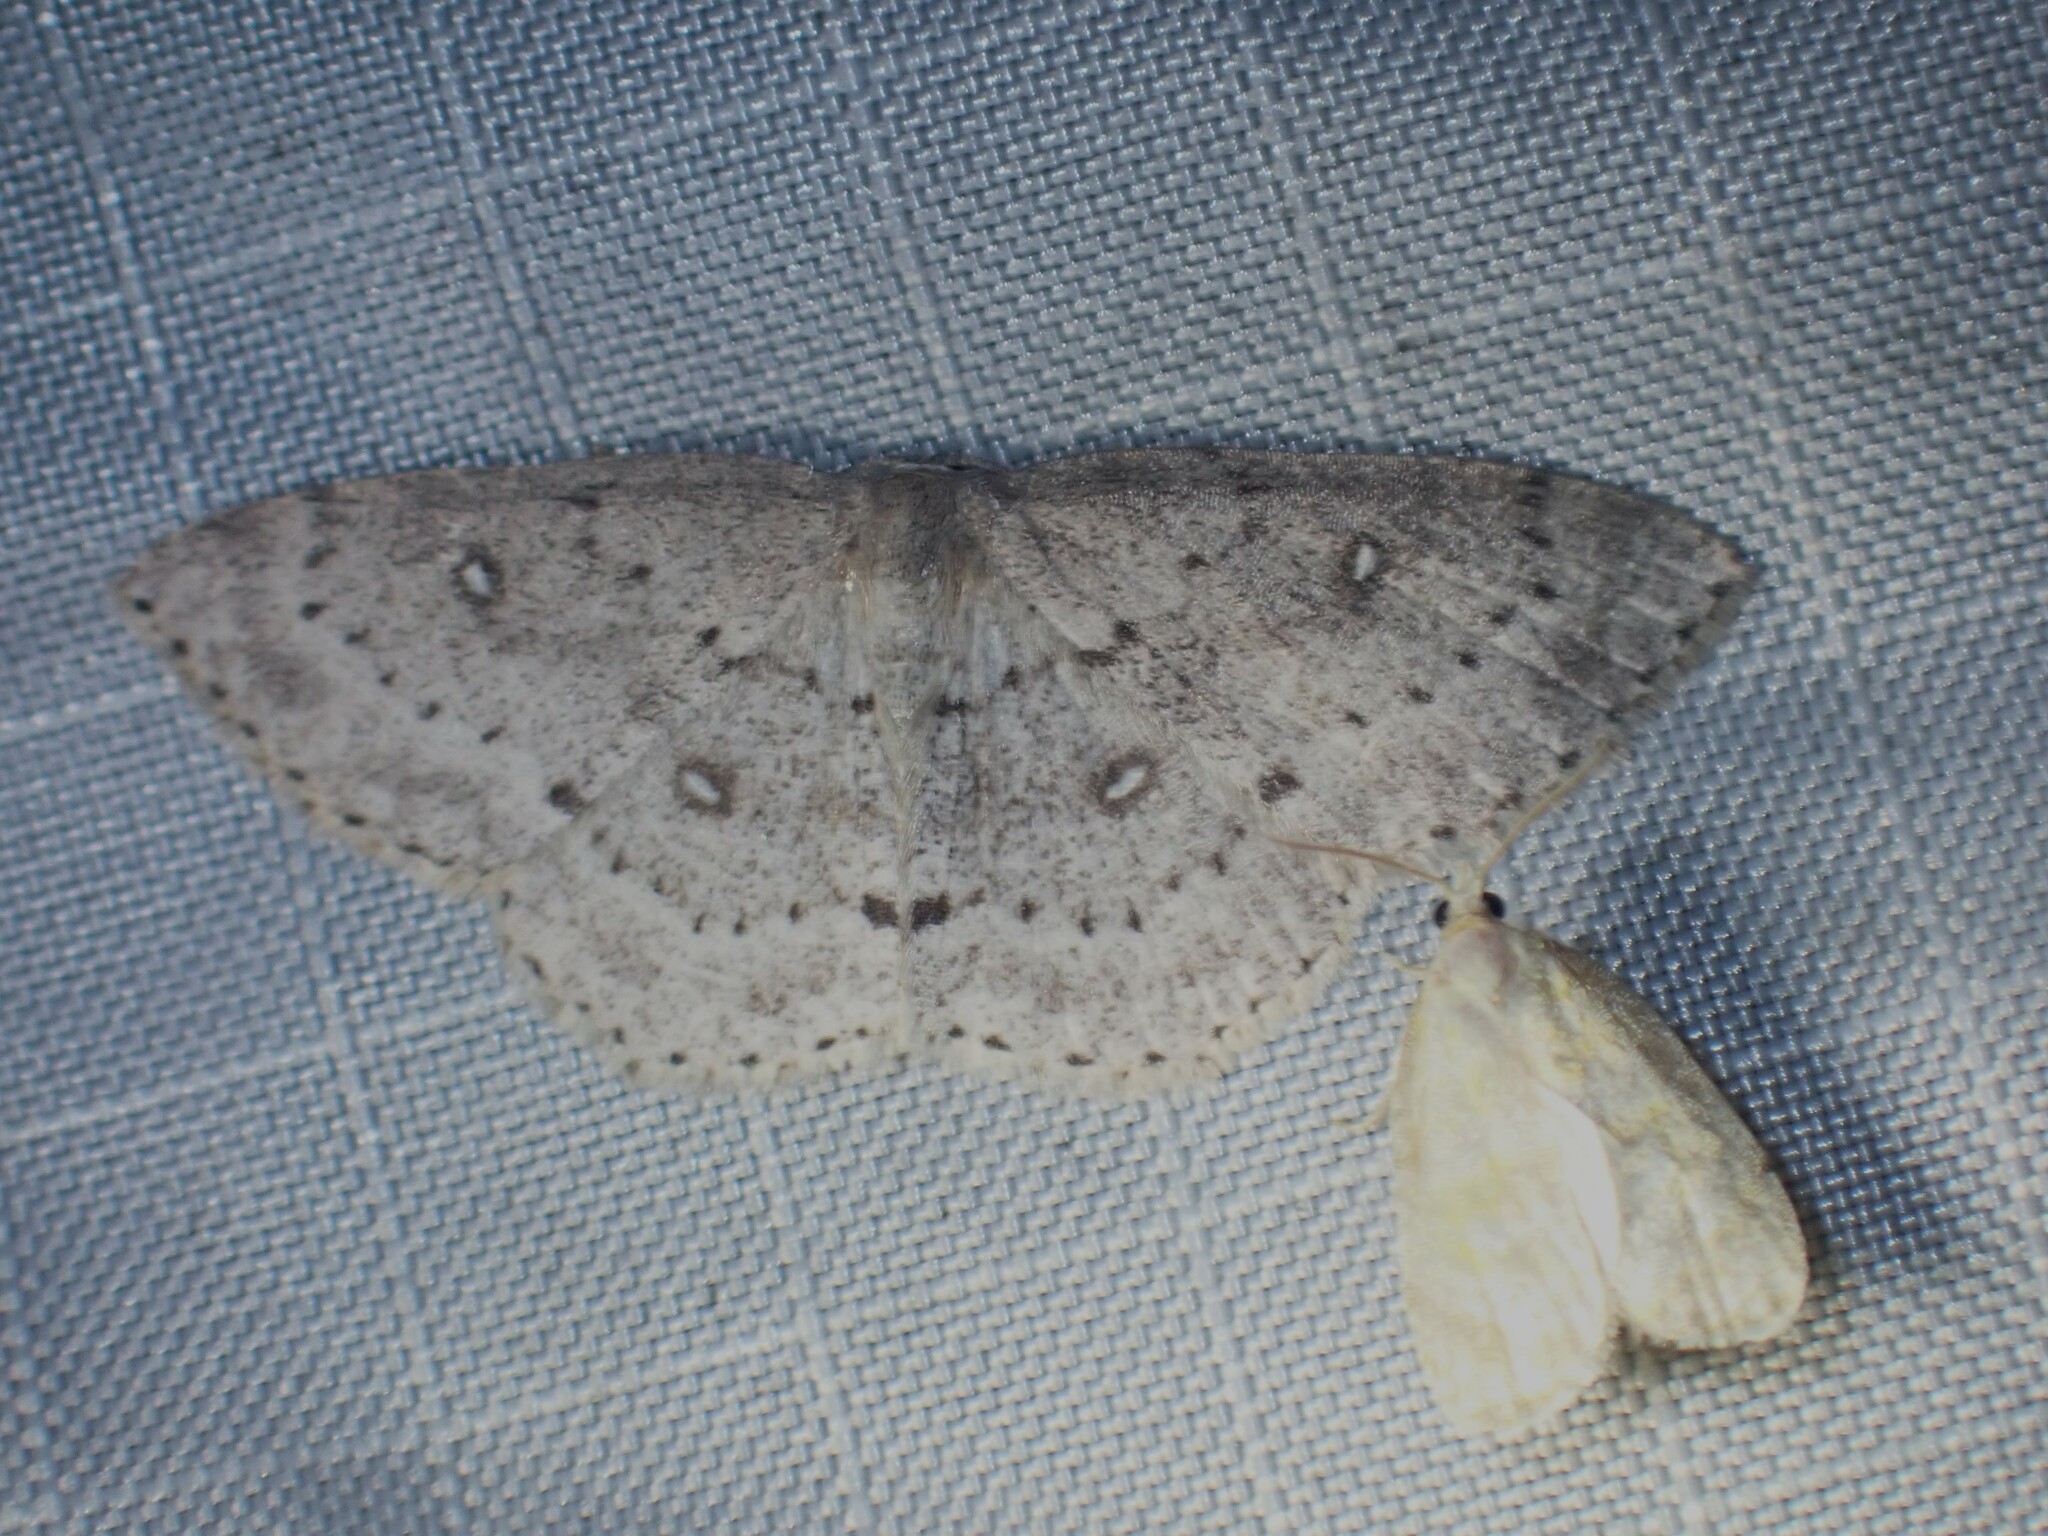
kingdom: Animalia
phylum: Arthropoda
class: Insecta
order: Lepidoptera
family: Geometridae
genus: Cyclophora
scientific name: Cyclophora pendulinaria
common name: Sweet fern geometer
